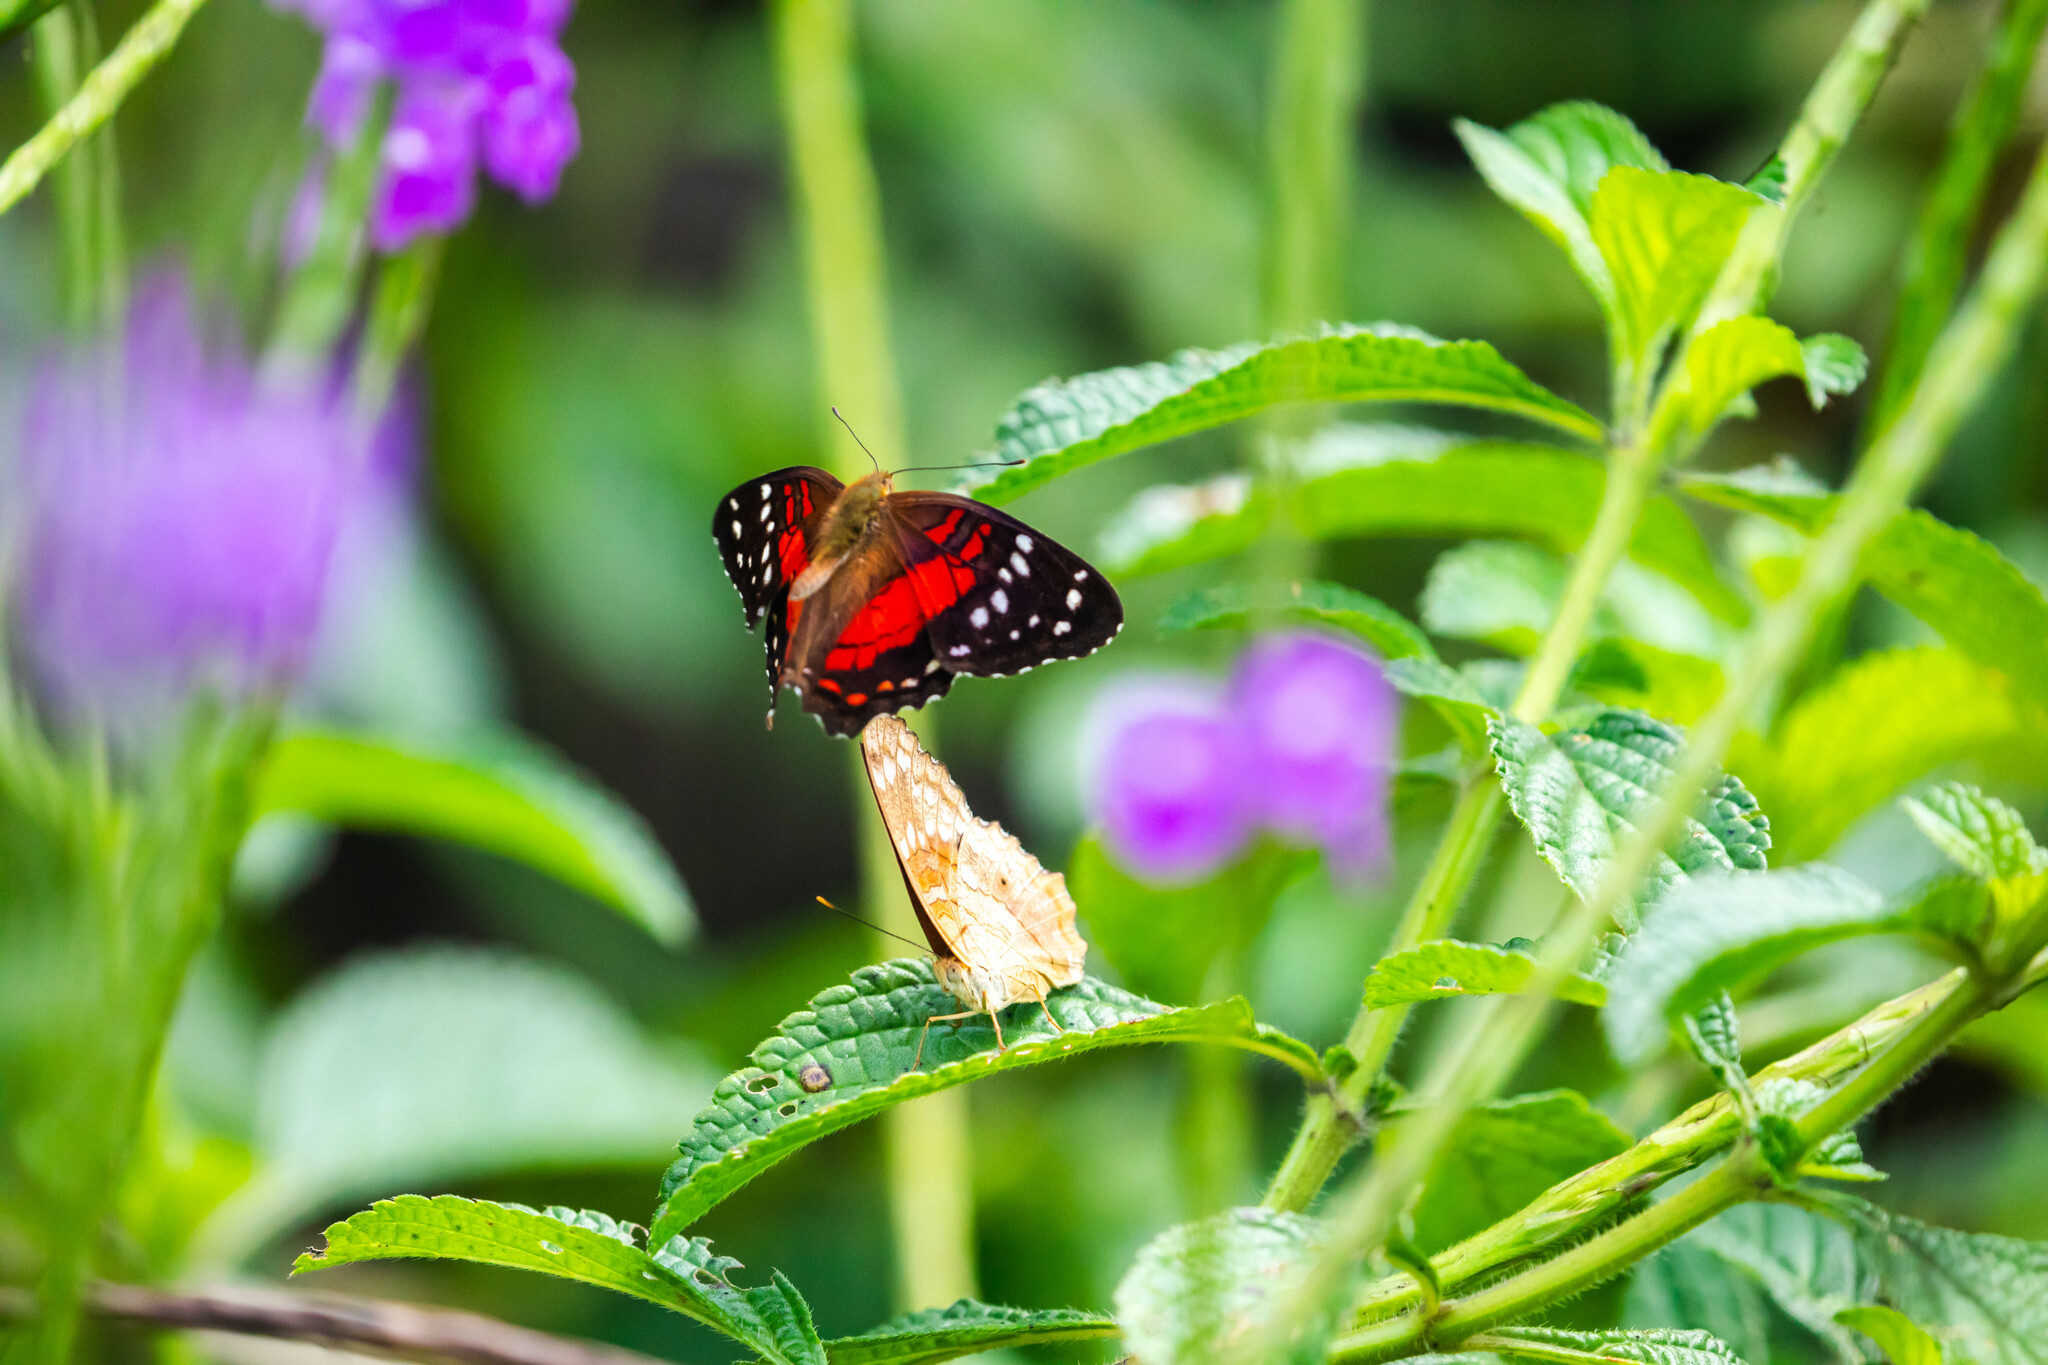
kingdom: Animalia
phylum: Arthropoda
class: Insecta
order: Lepidoptera
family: Nymphalidae
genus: Anartia
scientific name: Anartia amathea
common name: Red peacock
